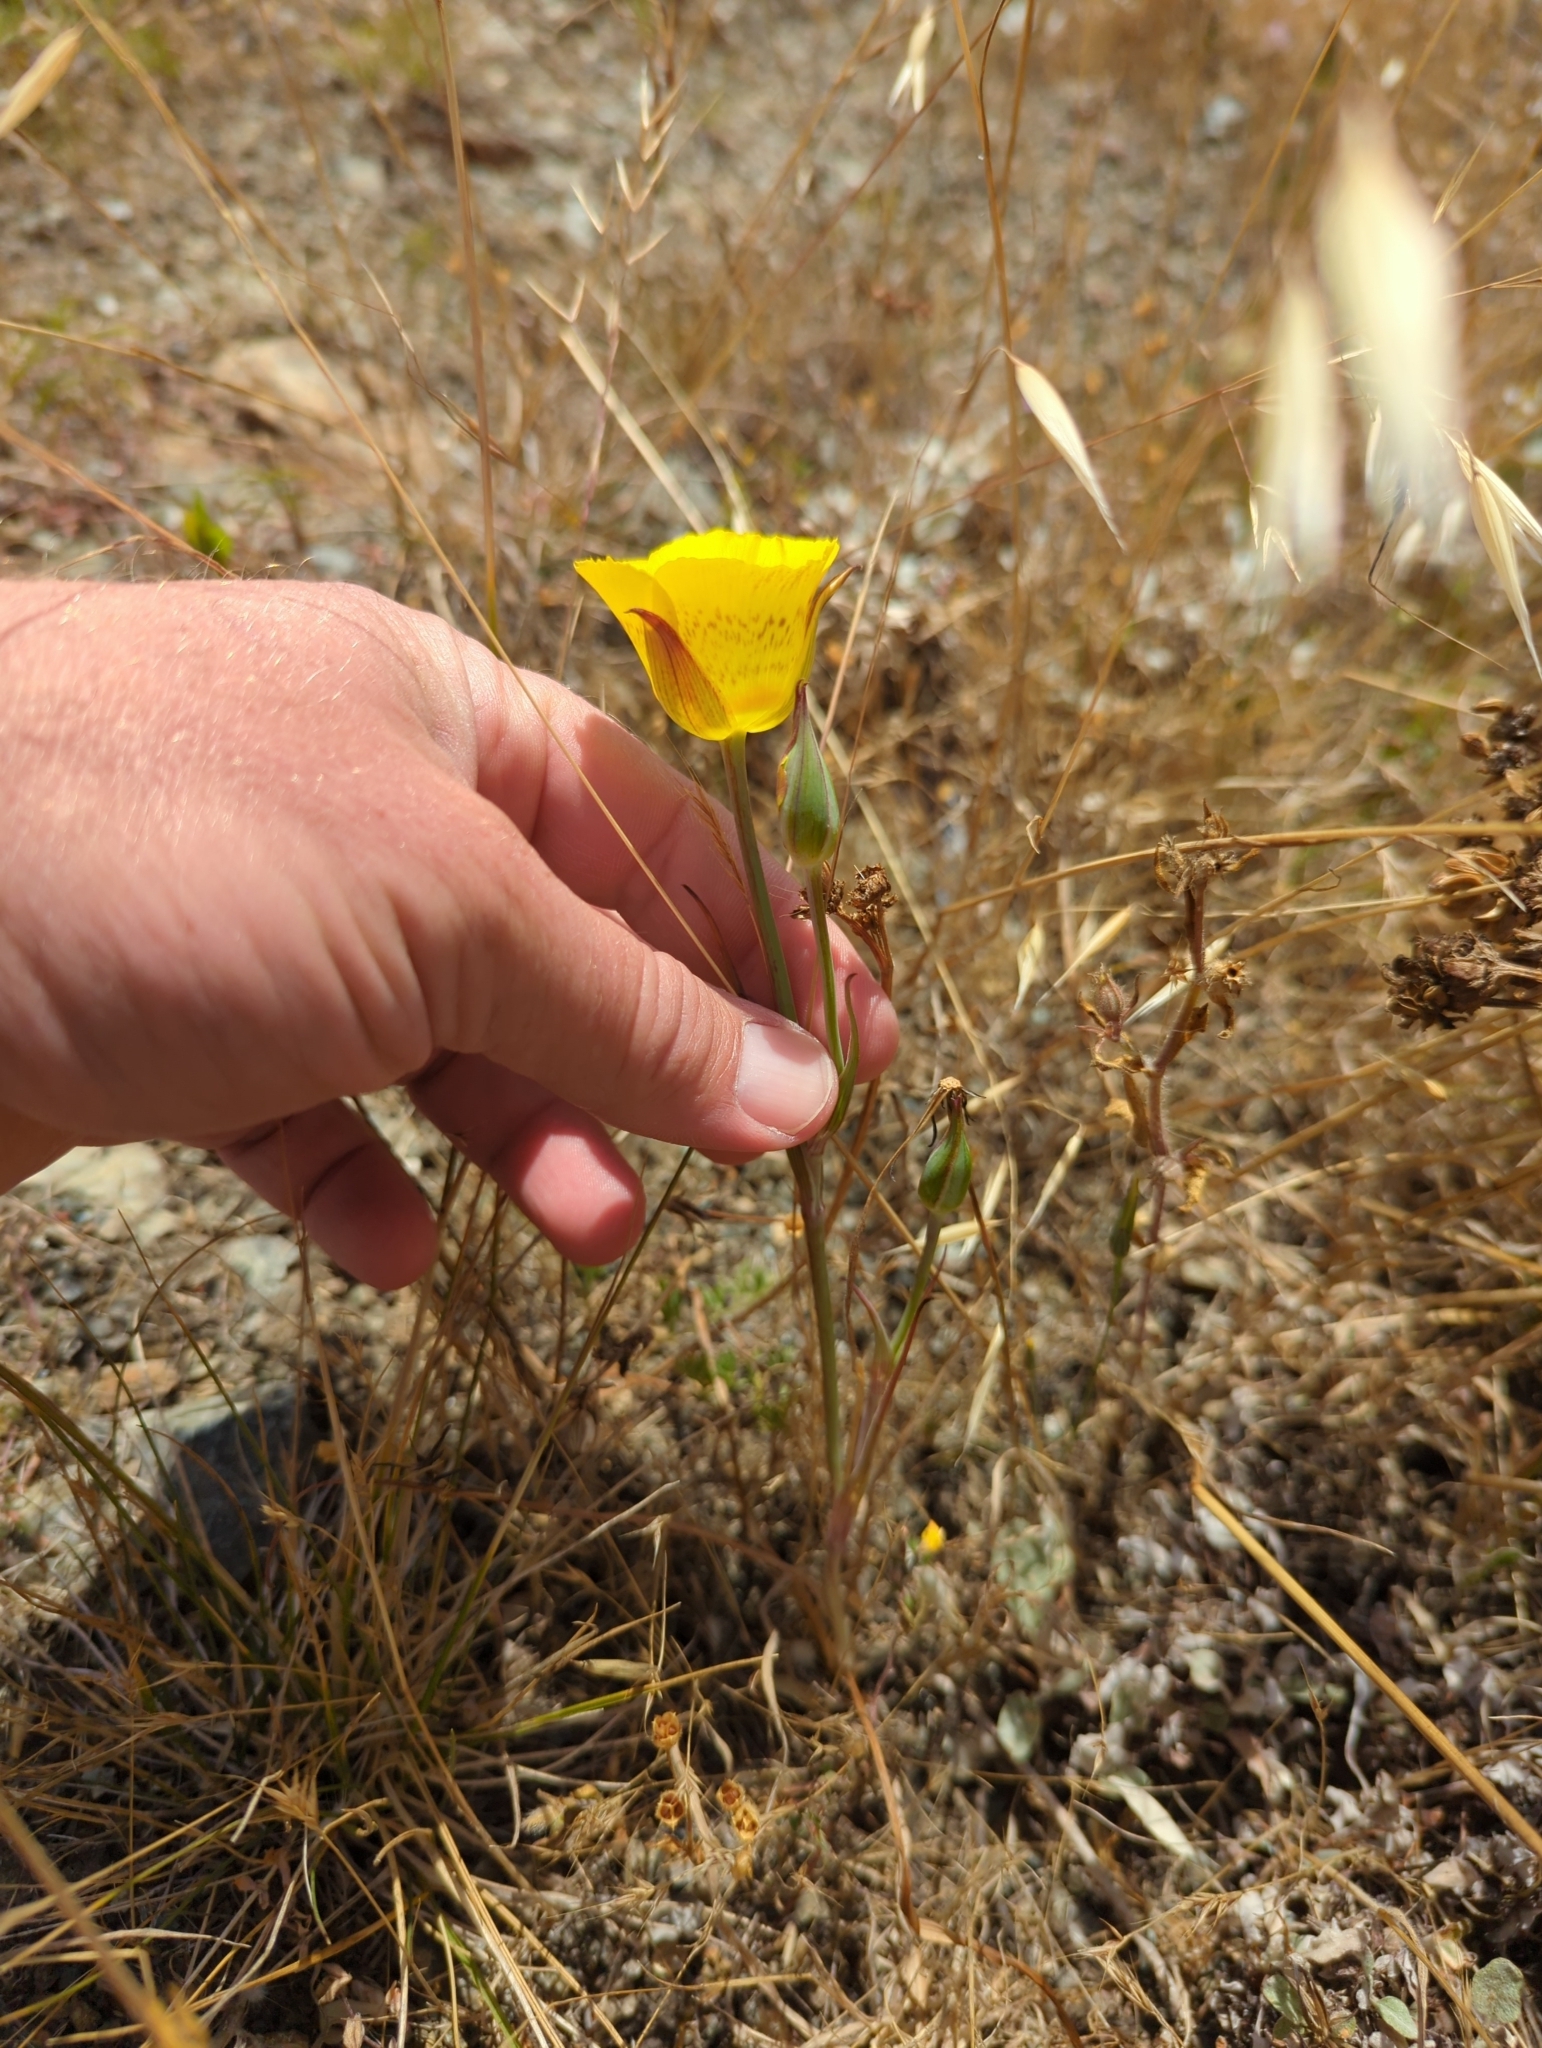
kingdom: Plantae
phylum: Tracheophyta
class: Liliopsida
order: Liliales
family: Liliaceae
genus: Calochortus
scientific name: Calochortus luteus
